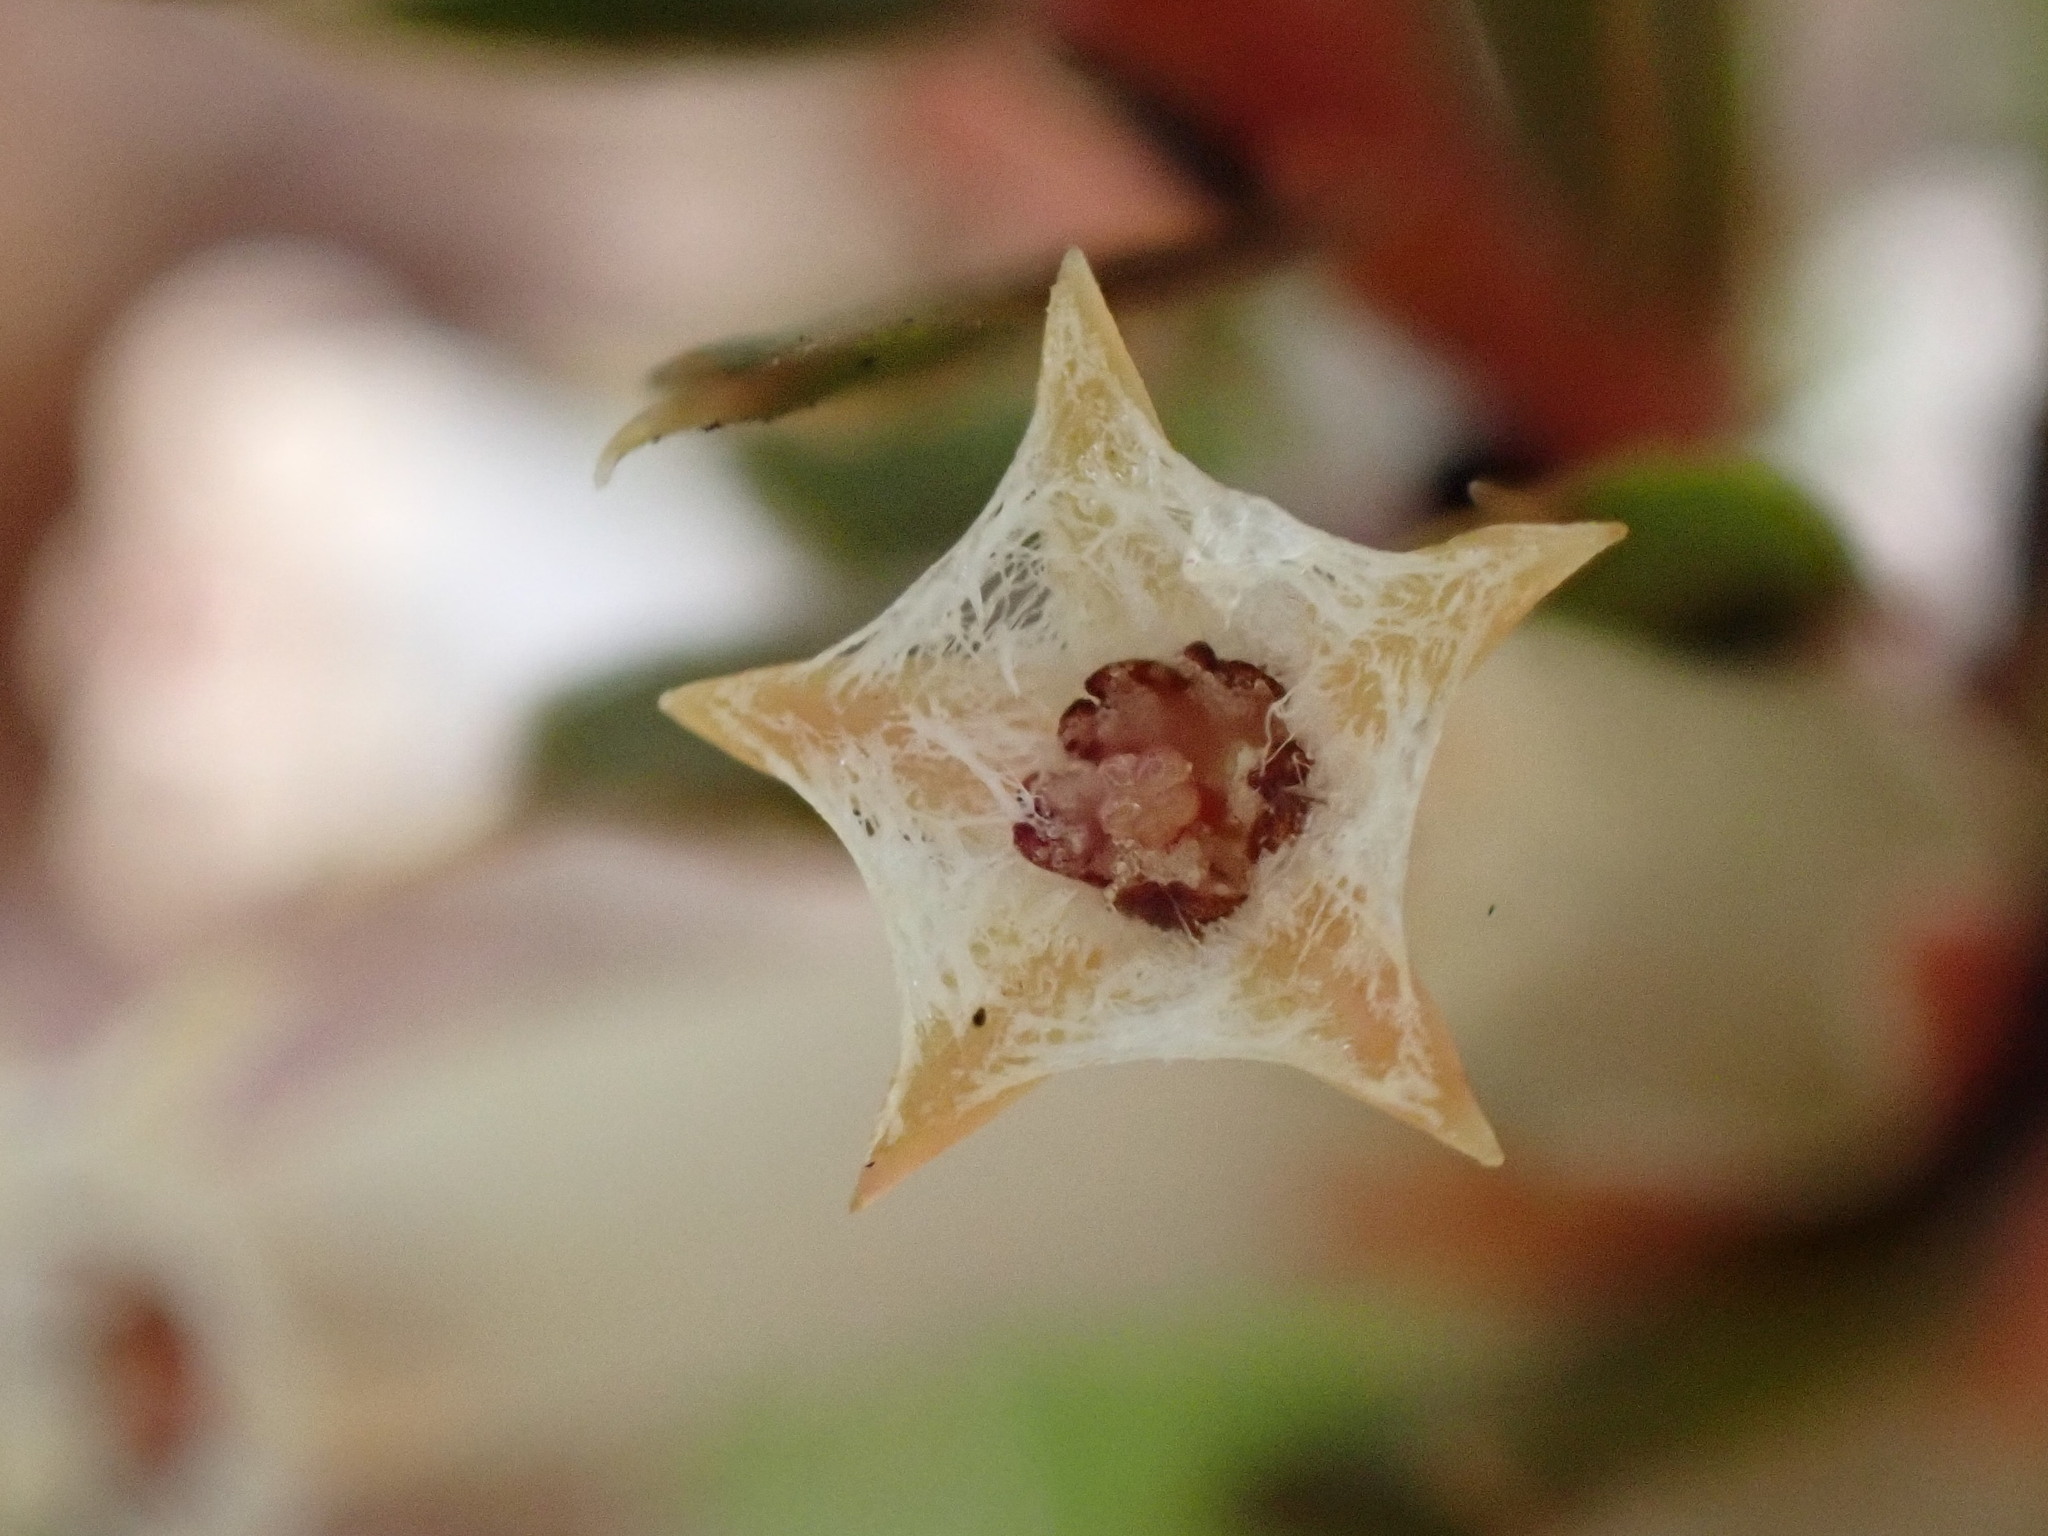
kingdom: Plantae
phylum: Tracheophyta
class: Magnoliopsida
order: Ericales
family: Ericaceae
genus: Styphelia
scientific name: Styphelia nesophila
